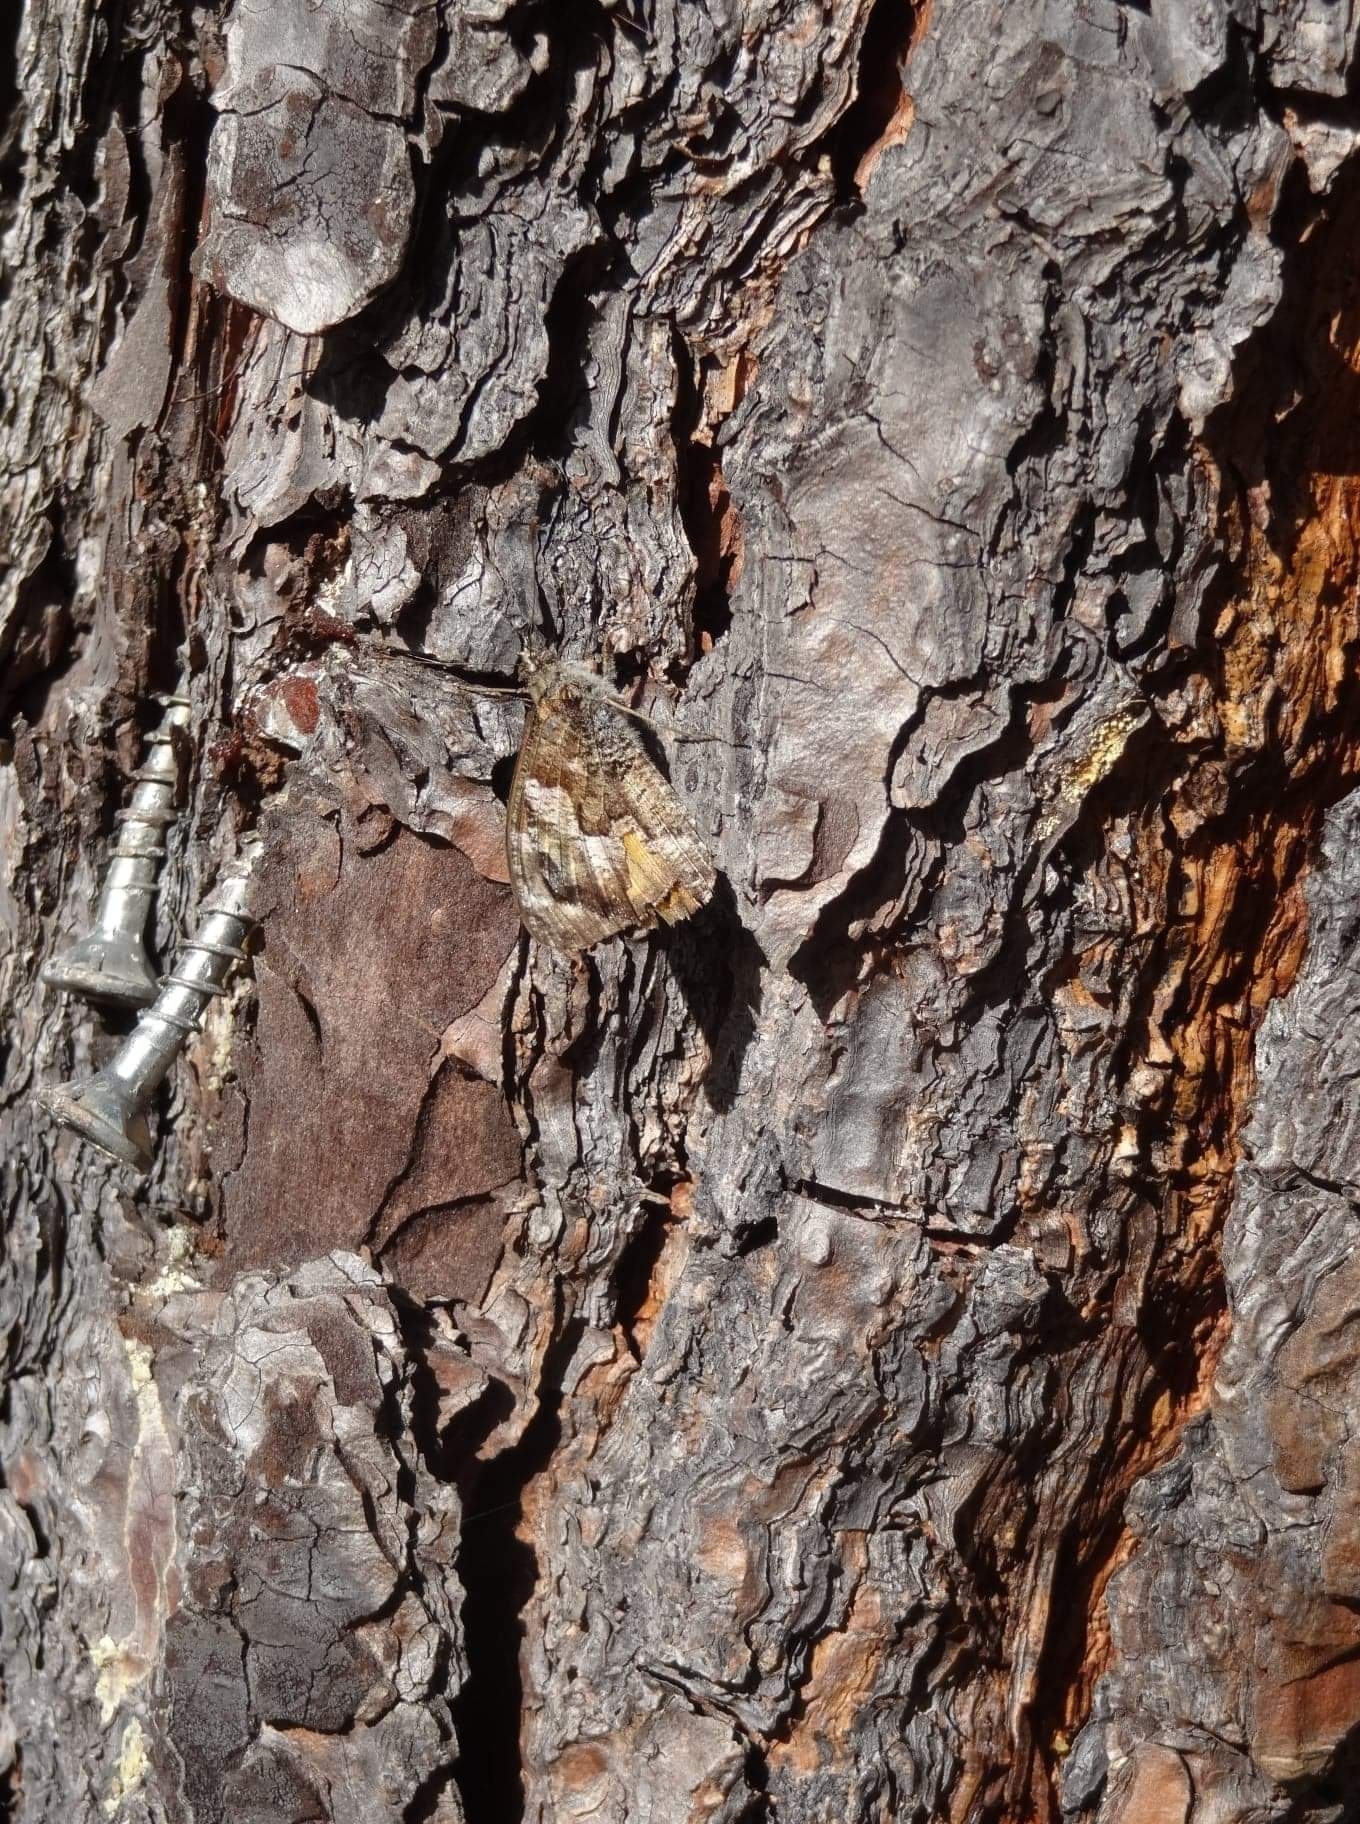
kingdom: Animalia
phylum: Arthropoda
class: Insecta
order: Lepidoptera
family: Nymphalidae
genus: Hipparchia
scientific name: Hipparchia algirica
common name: Mountain grayling
